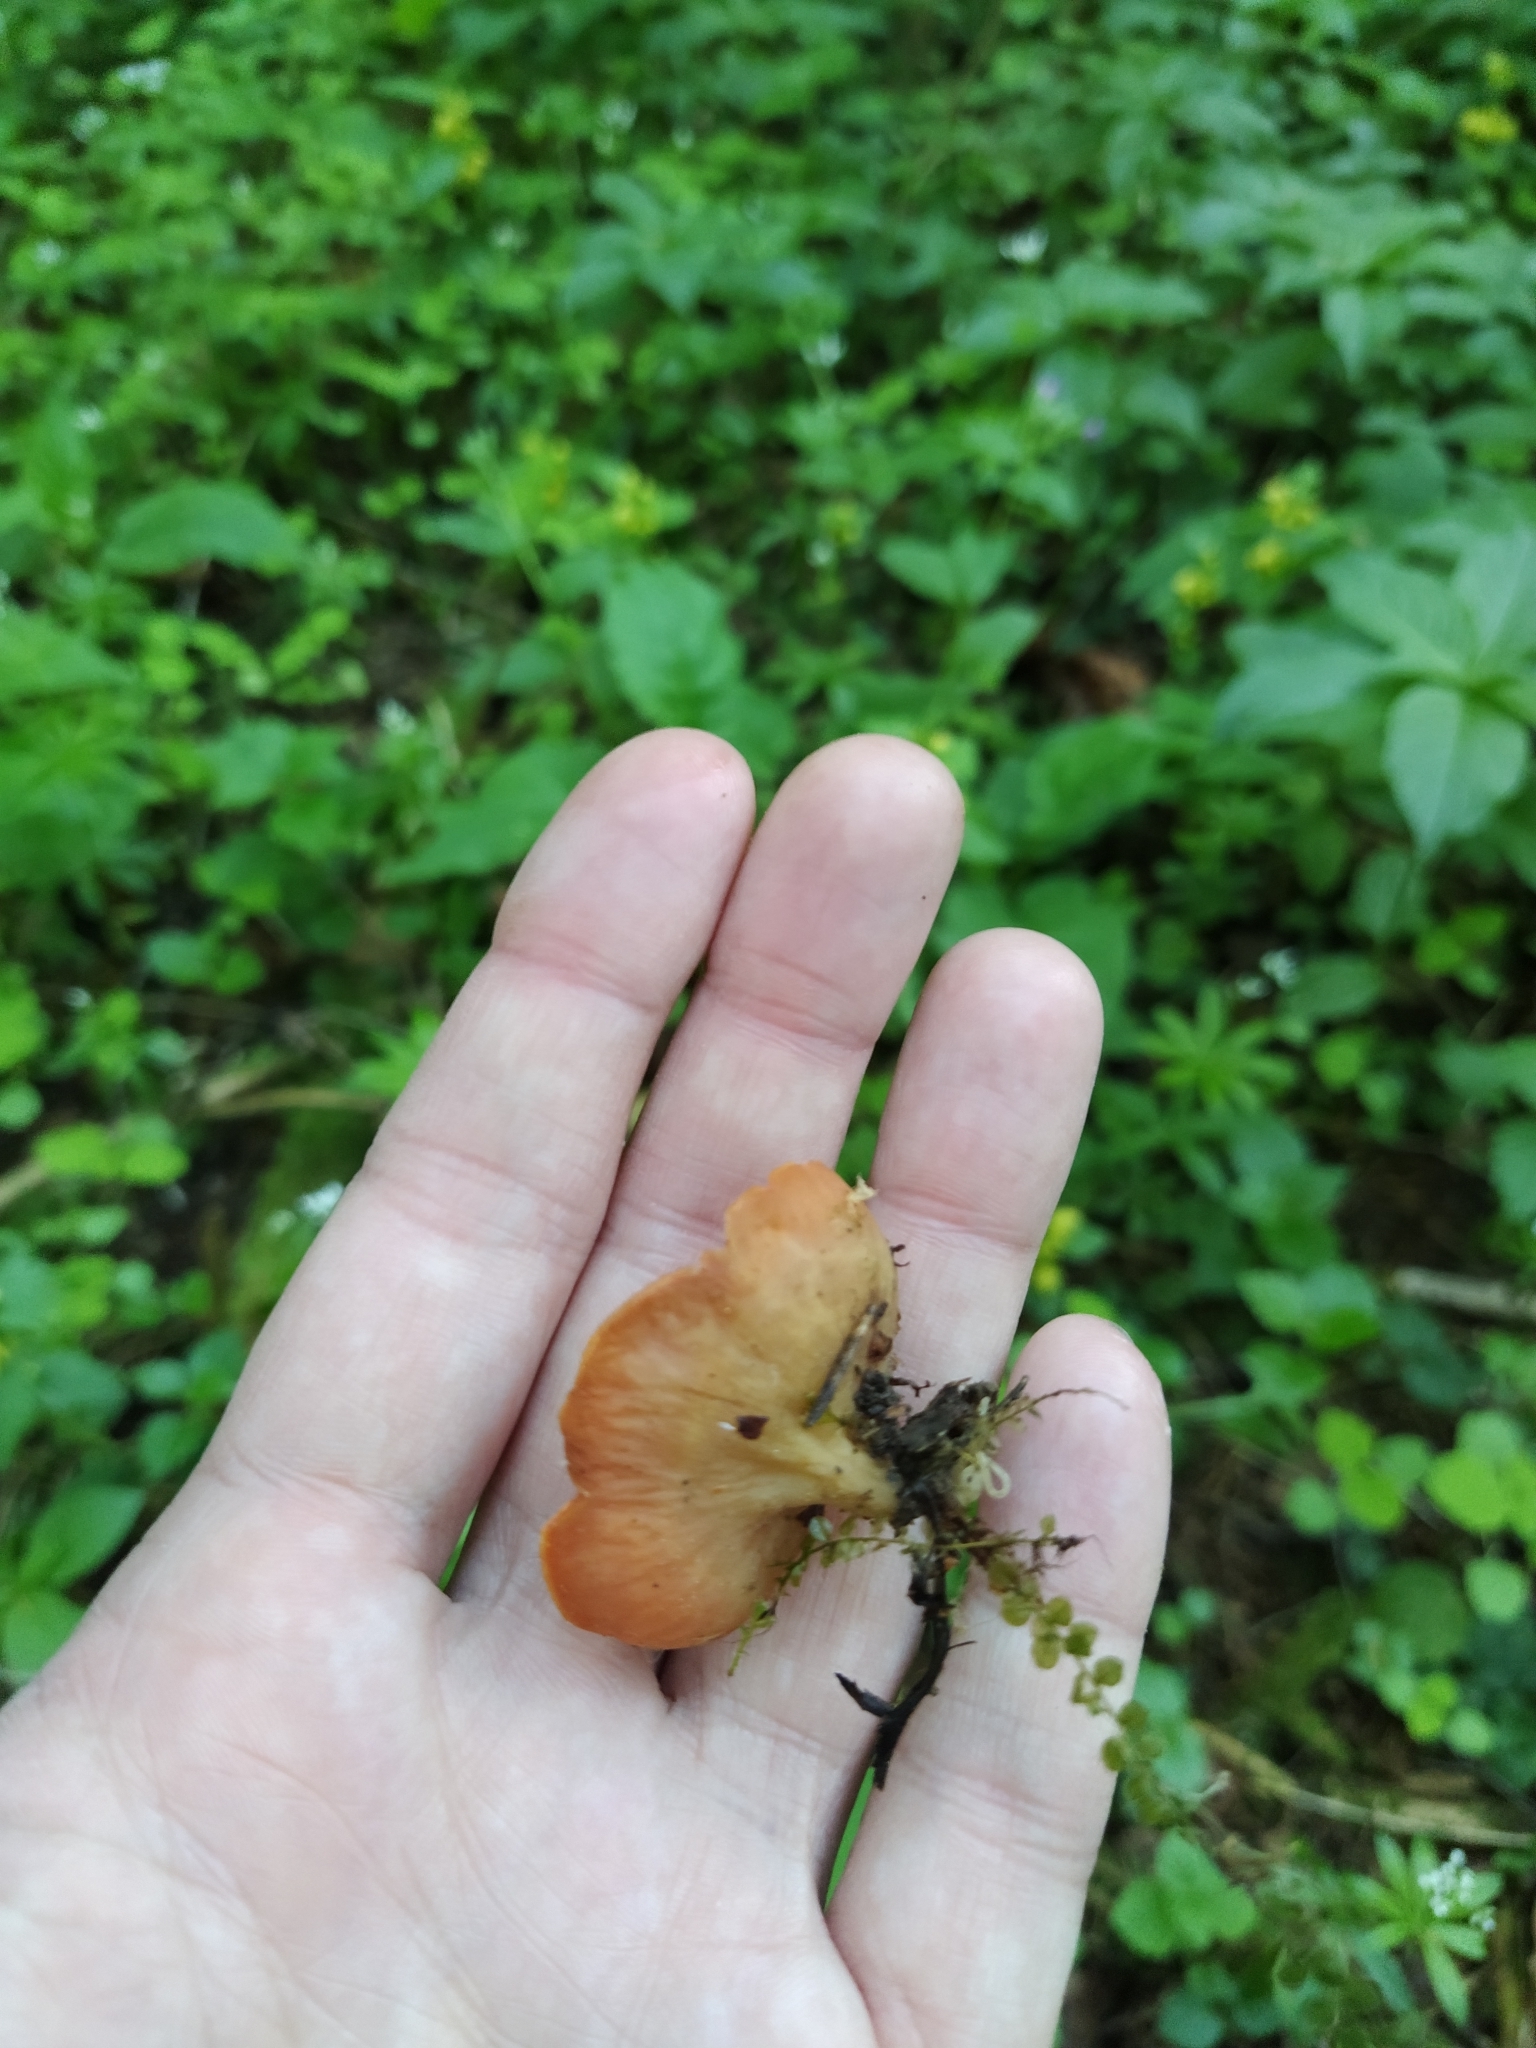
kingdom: Fungi
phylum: Ascomycota
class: Pezizomycetes
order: Pezizales
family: Sarcoscyphaceae
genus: Sarcoscypha
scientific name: Sarcoscypha austriaca
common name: Scarlet elfcup
